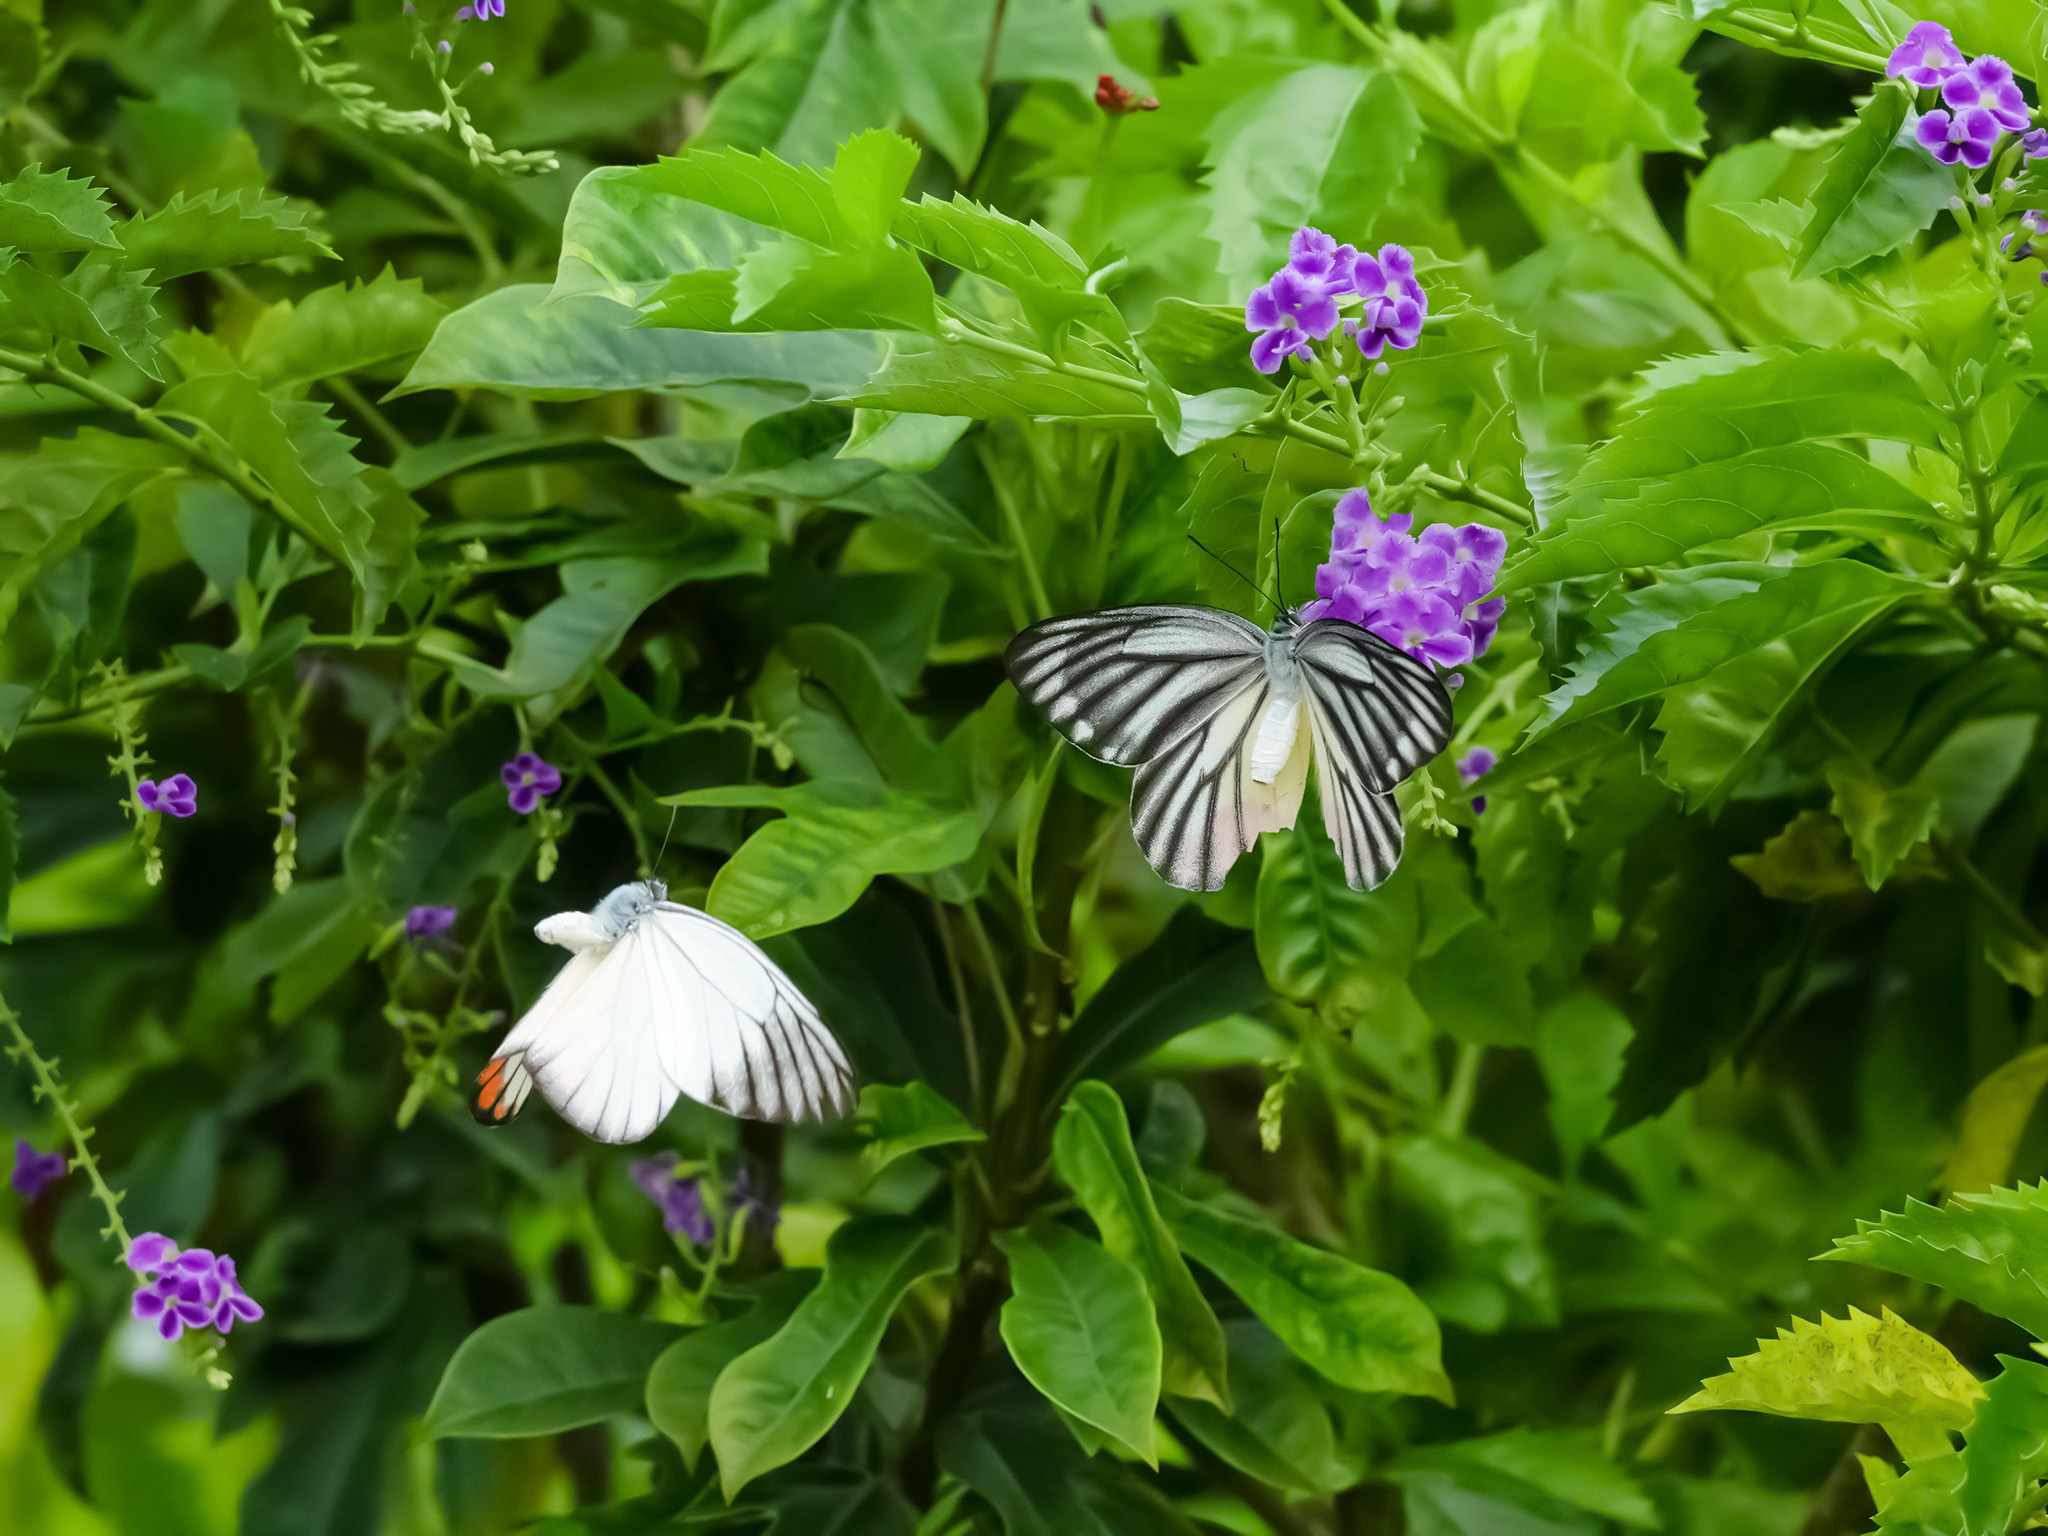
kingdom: Animalia
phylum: Arthropoda
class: Insecta
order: Lepidoptera
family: Pieridae
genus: Delias
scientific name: Delias hyparete
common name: Painted jezebel
